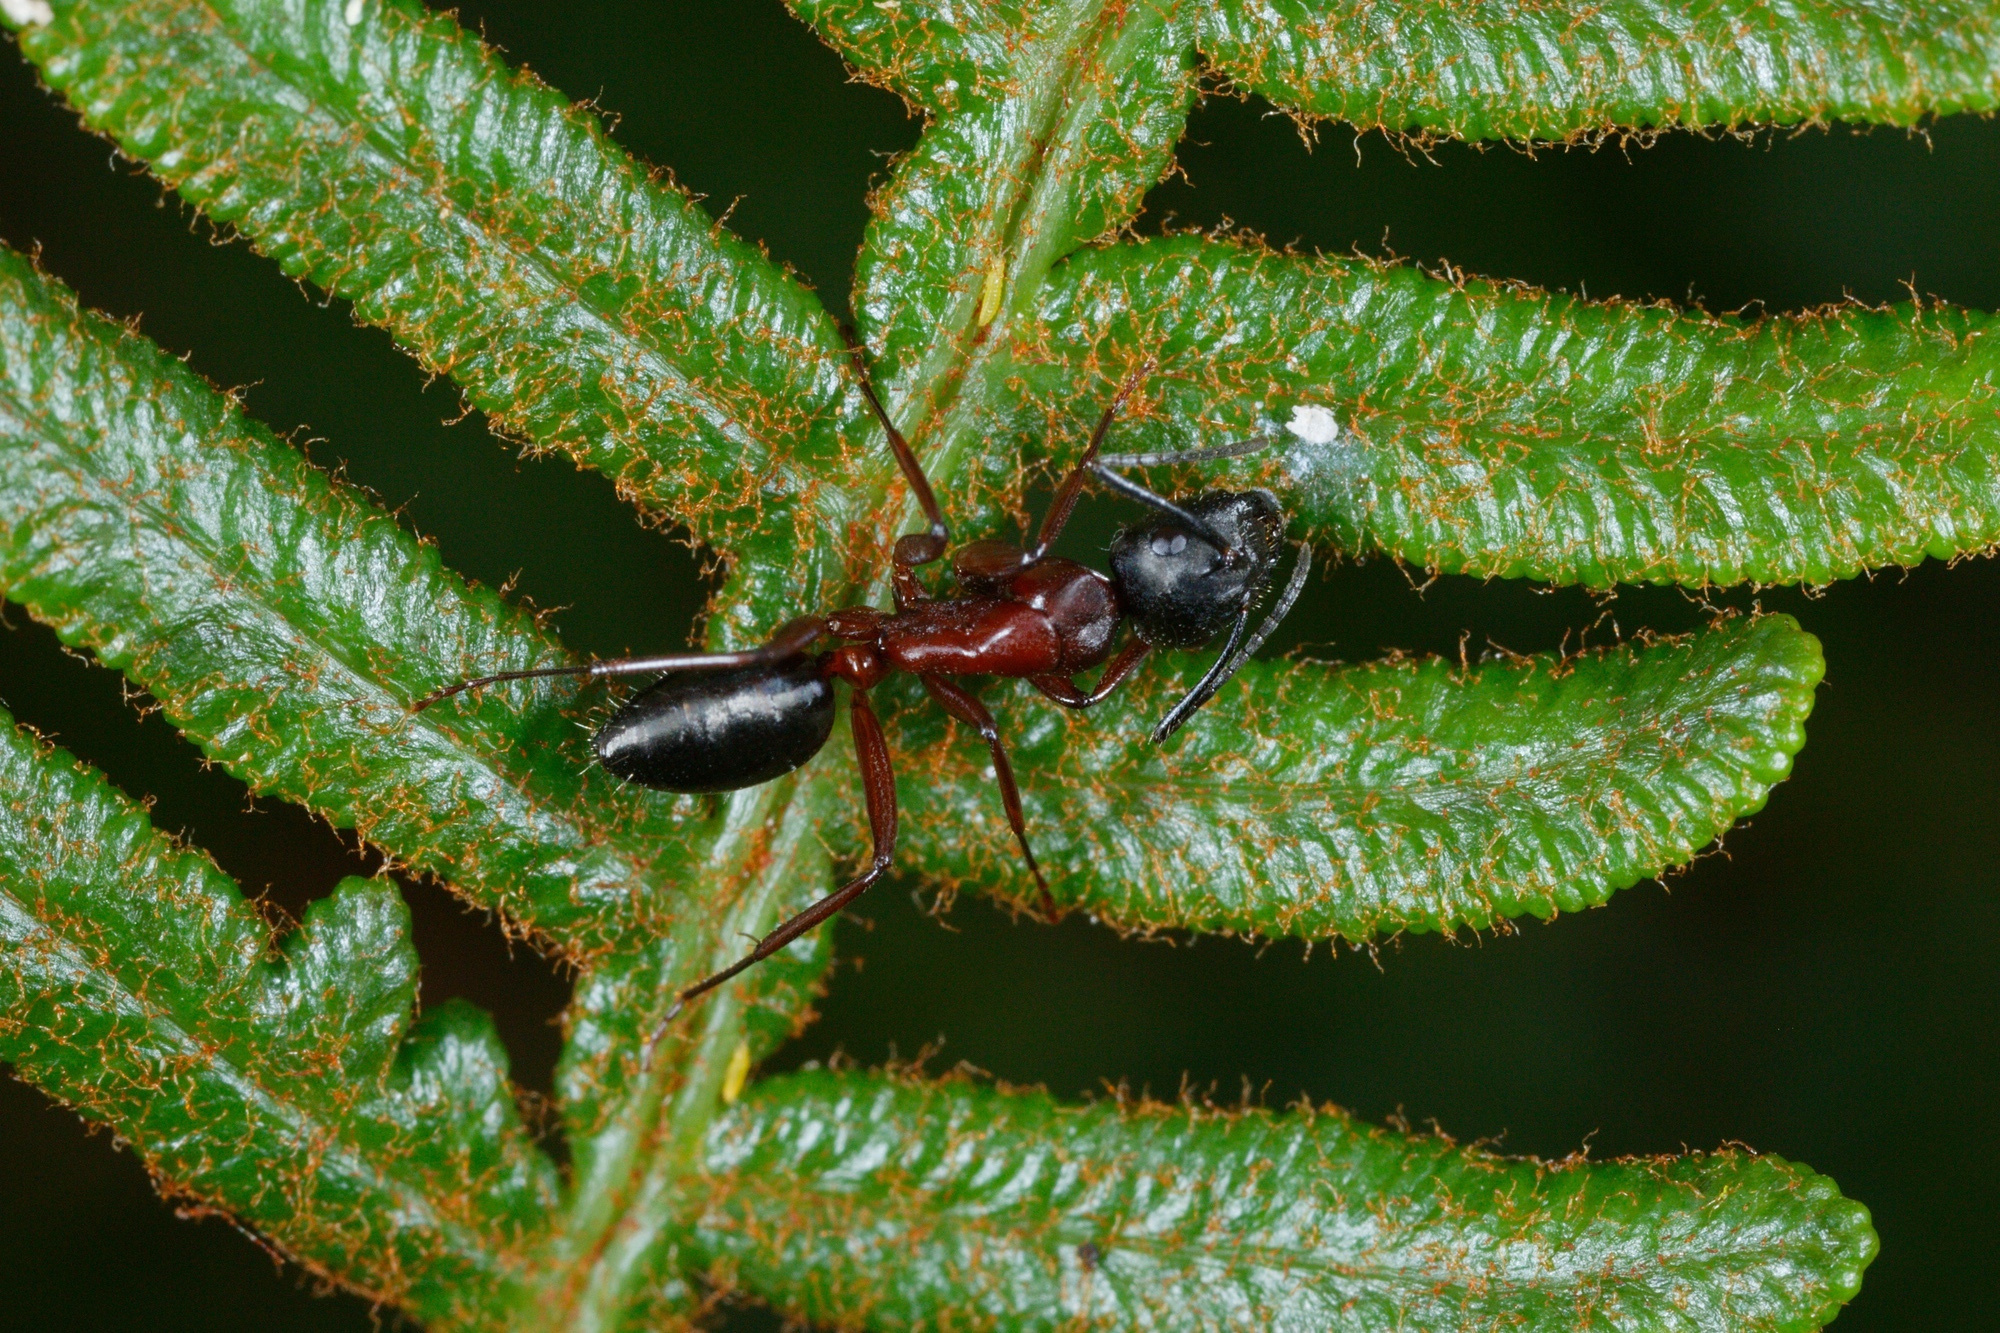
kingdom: Animalia
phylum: Arthropoda
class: Insecta
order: Hymenoptera
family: Formicidae
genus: Camponotus
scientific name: Camponotus innexus
